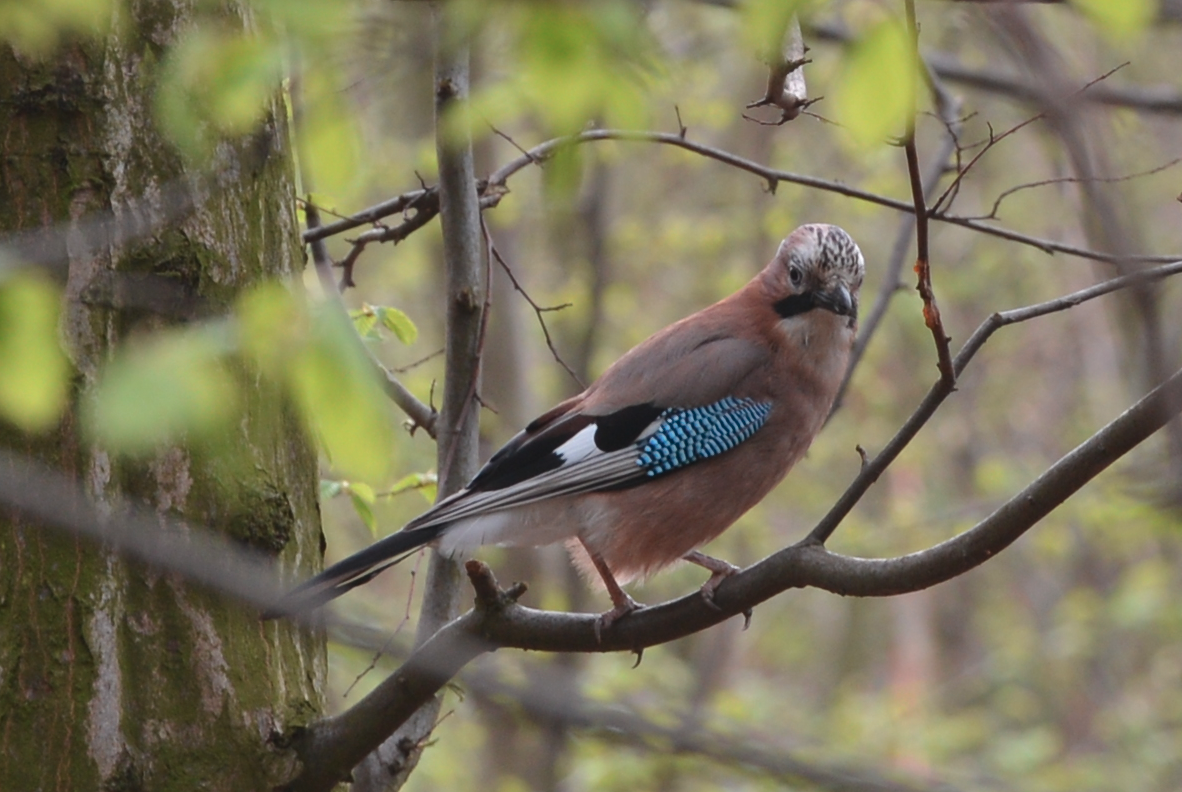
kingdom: Animalia
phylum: Chordata
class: Aves
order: Passeriformes
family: Corvidae
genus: Garrulus
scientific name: Garrulus glandarius
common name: Eurasian jay
